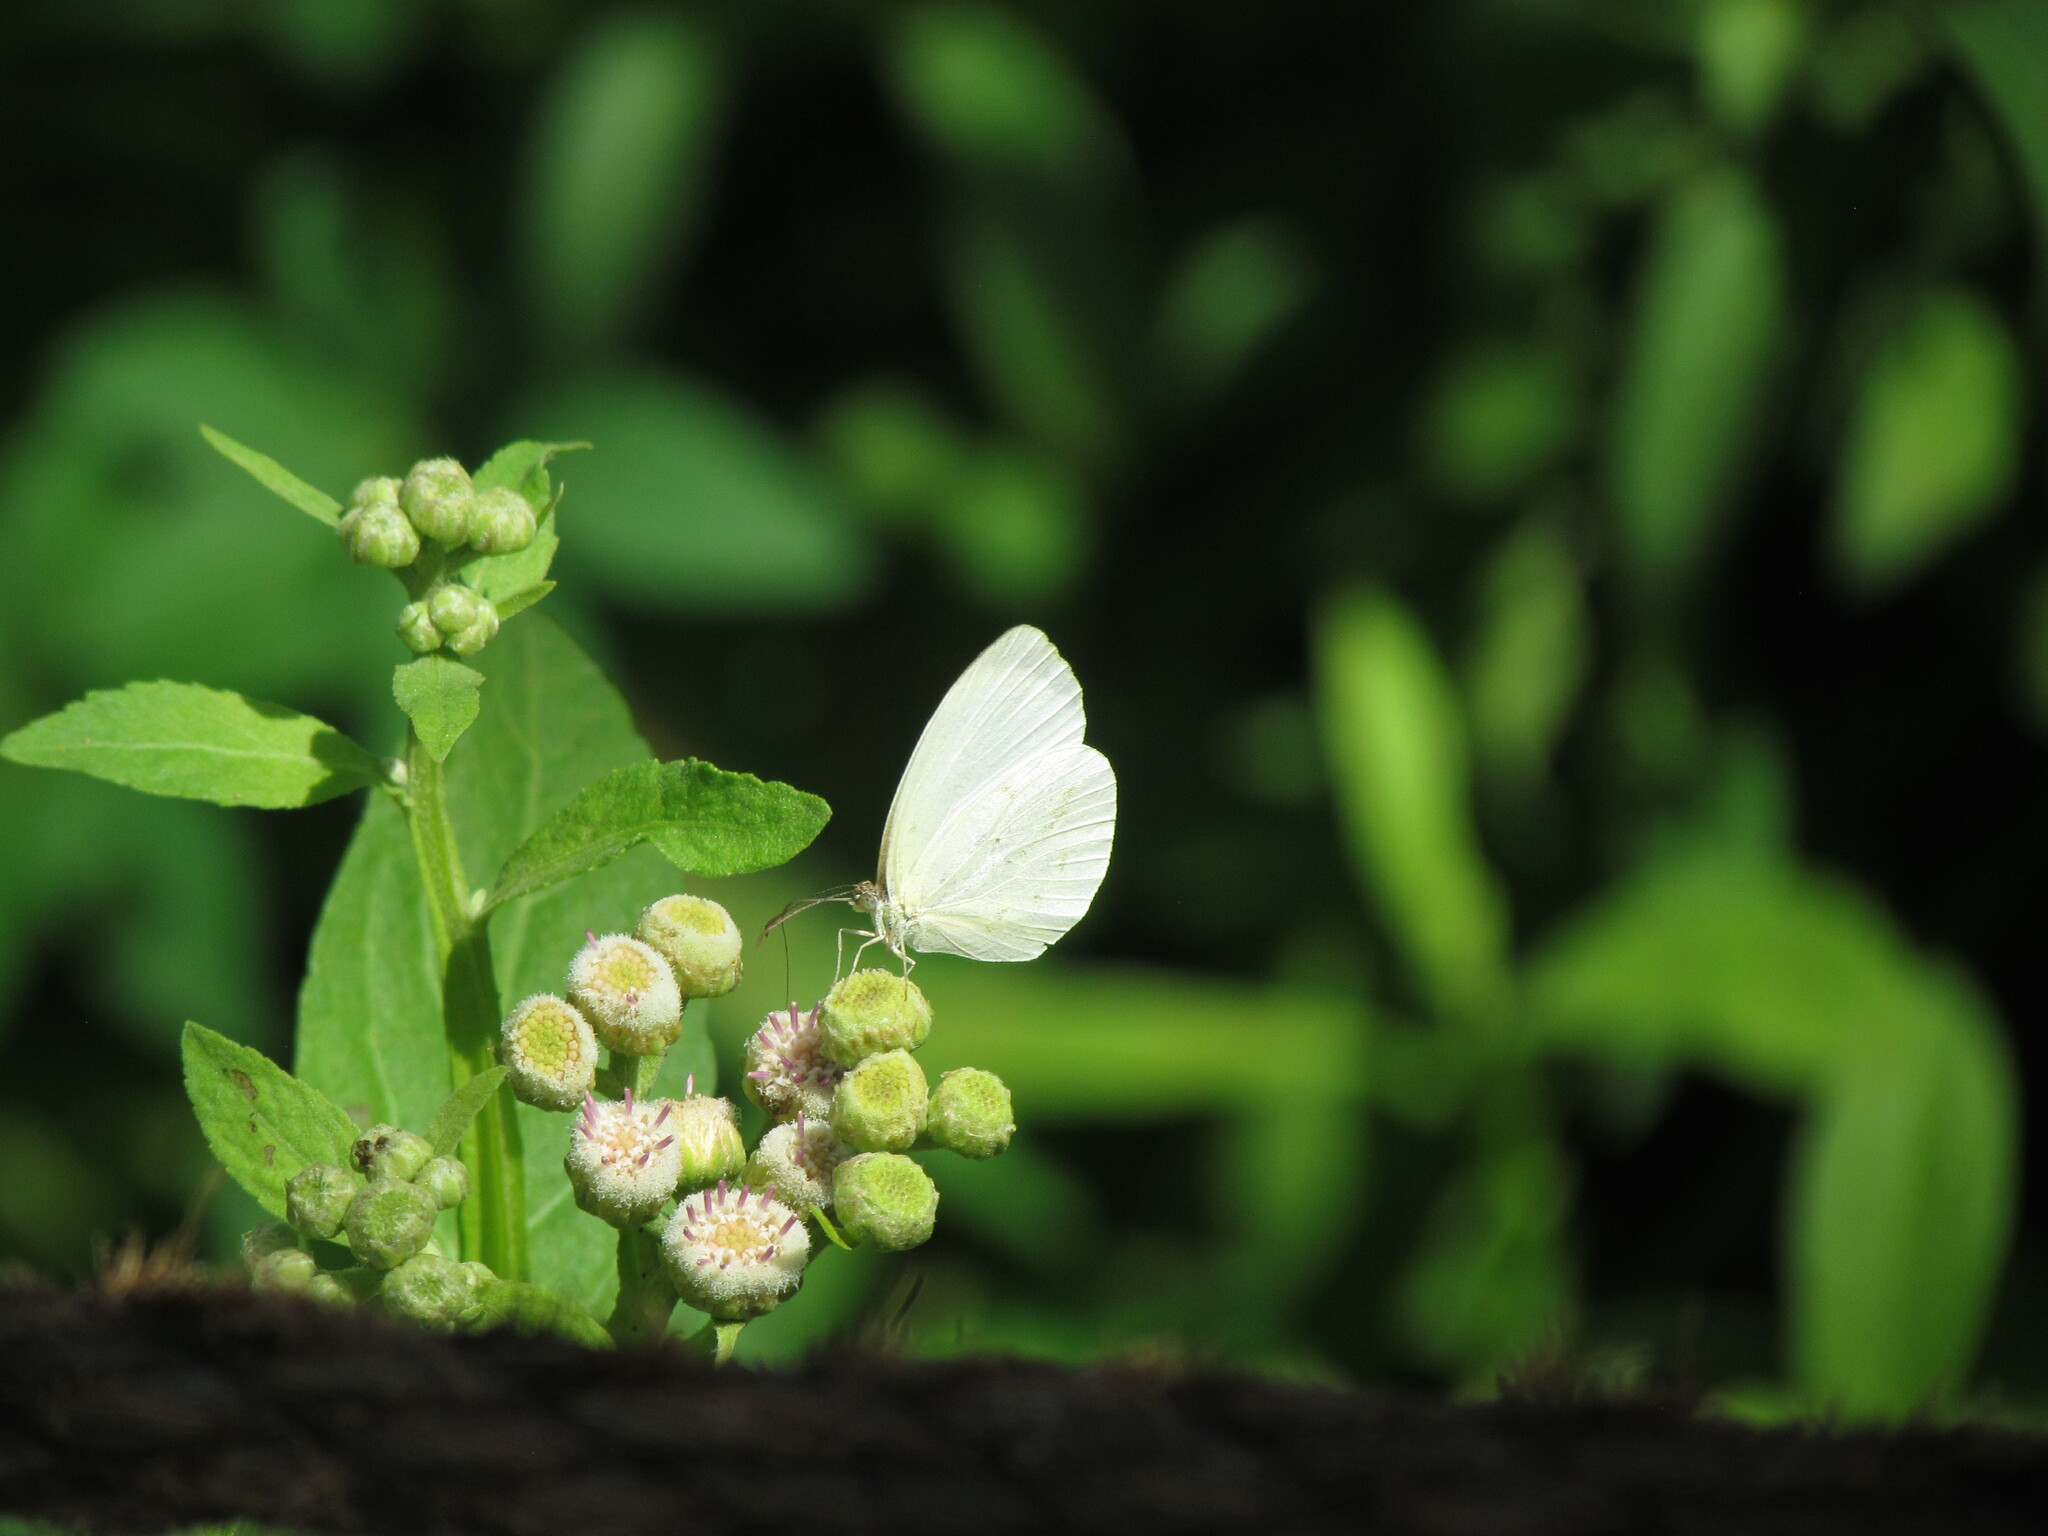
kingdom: Animalia
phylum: Arthropoda
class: Insecta
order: Lepidoptera
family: Pieridae
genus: Abaeis
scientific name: Abaeis albula
